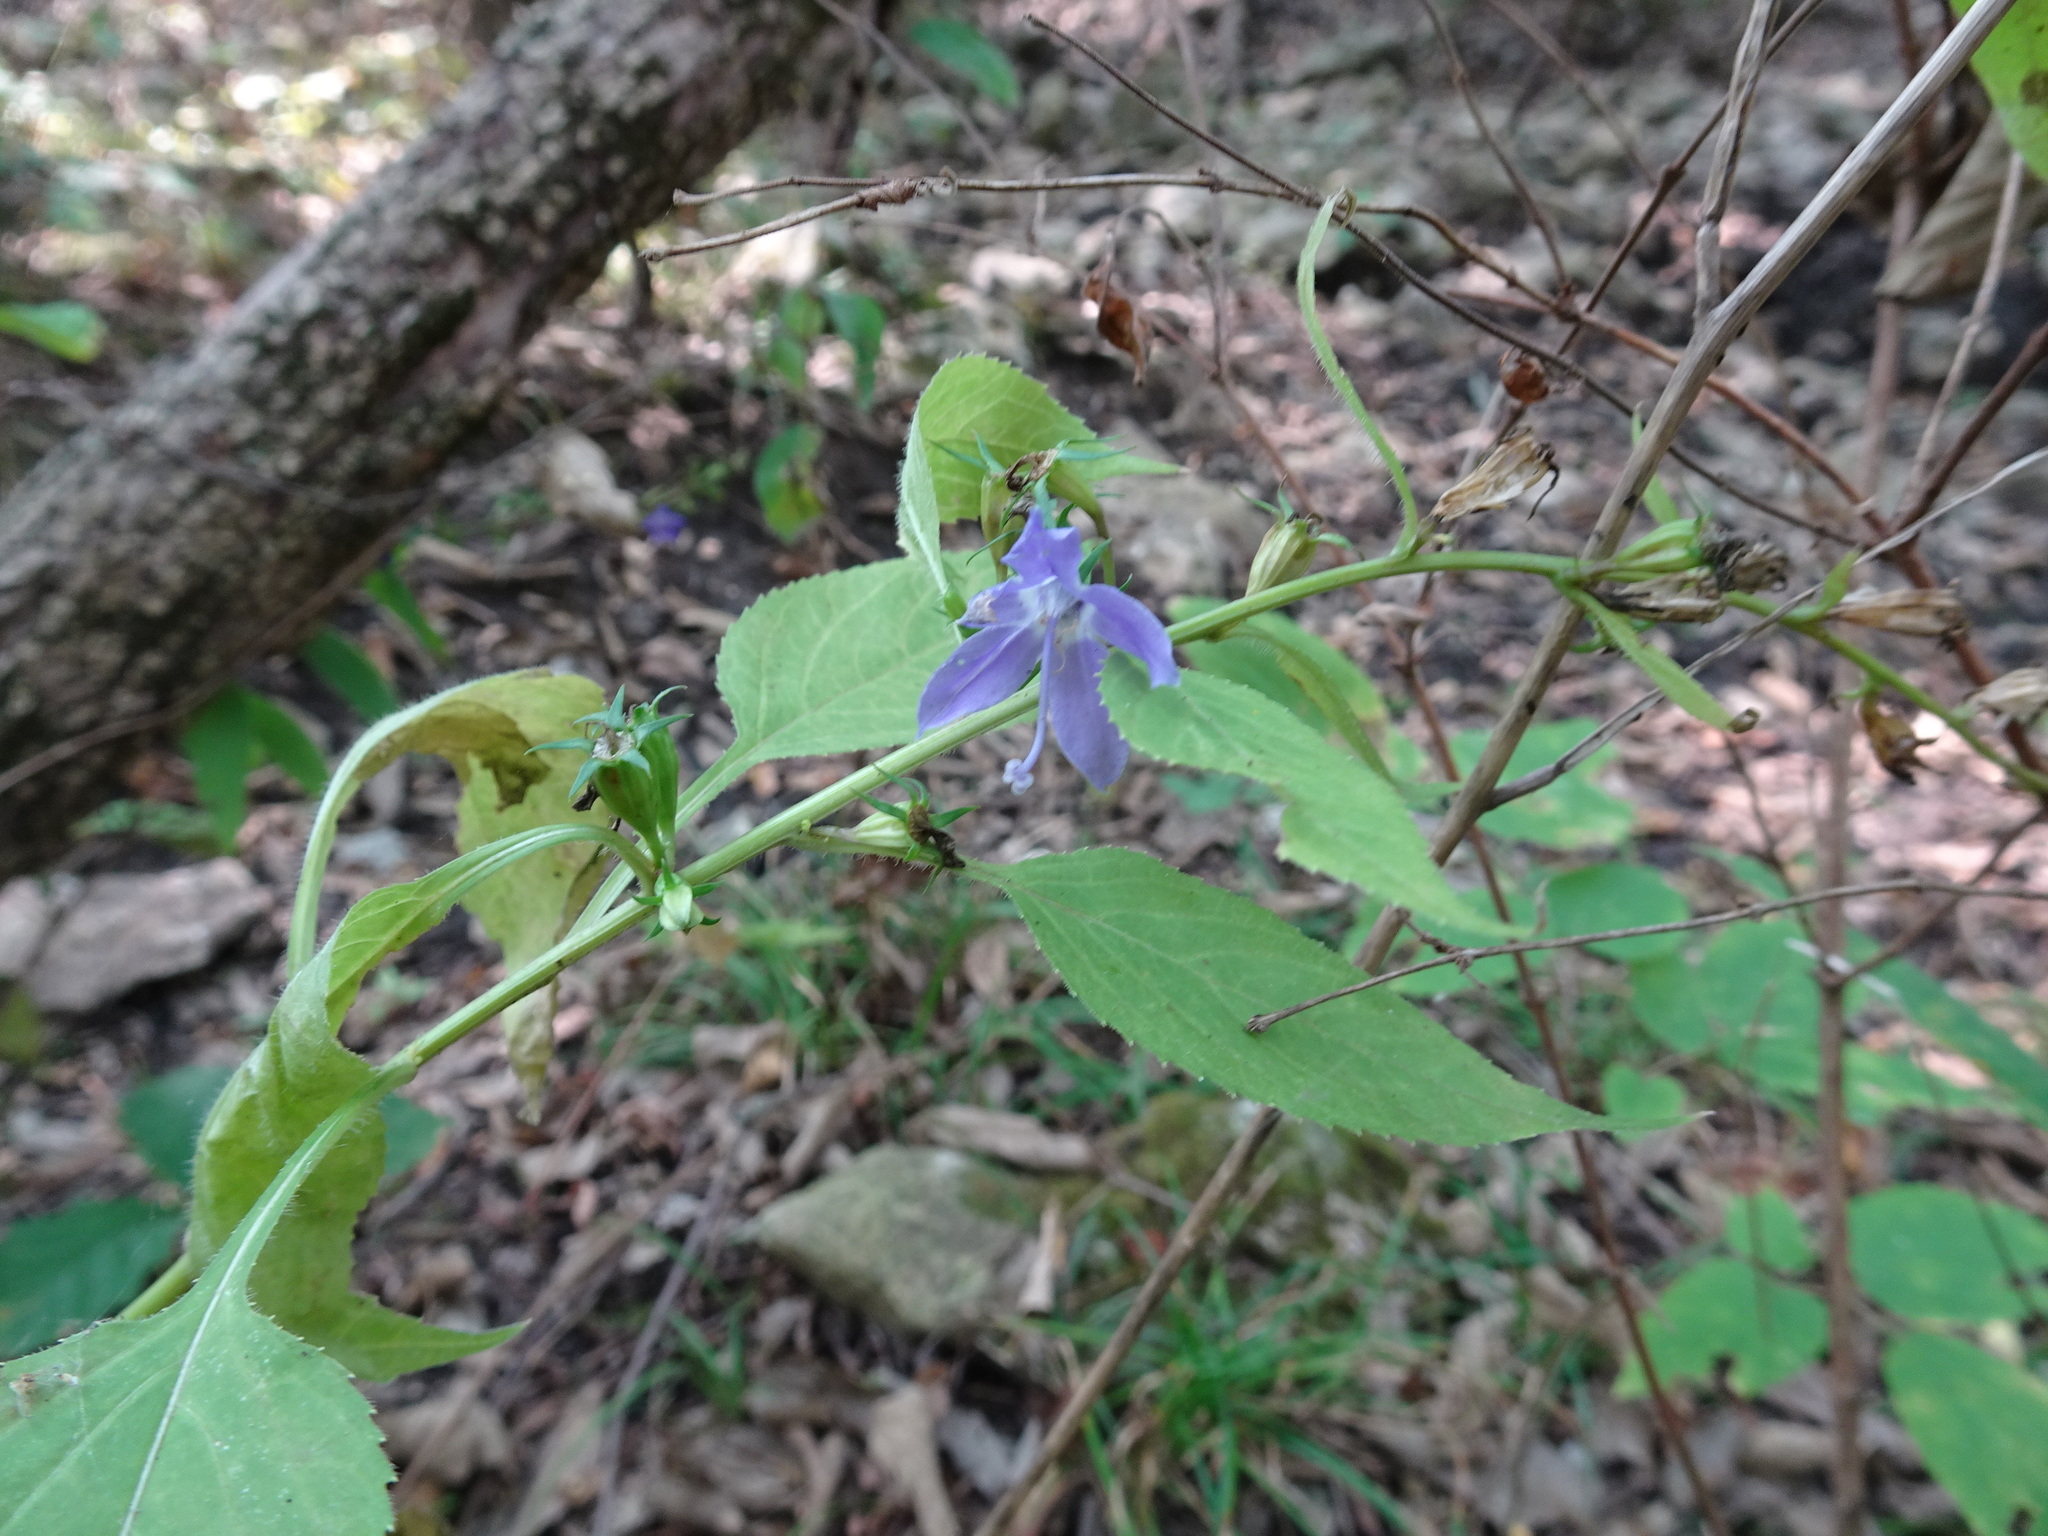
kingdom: Plantae
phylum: Tracheophyta
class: Magnoliopsida
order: Asterales
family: Campanulaceae
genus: Campanulastrum
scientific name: Campanulastrum americanum
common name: American bellflower
